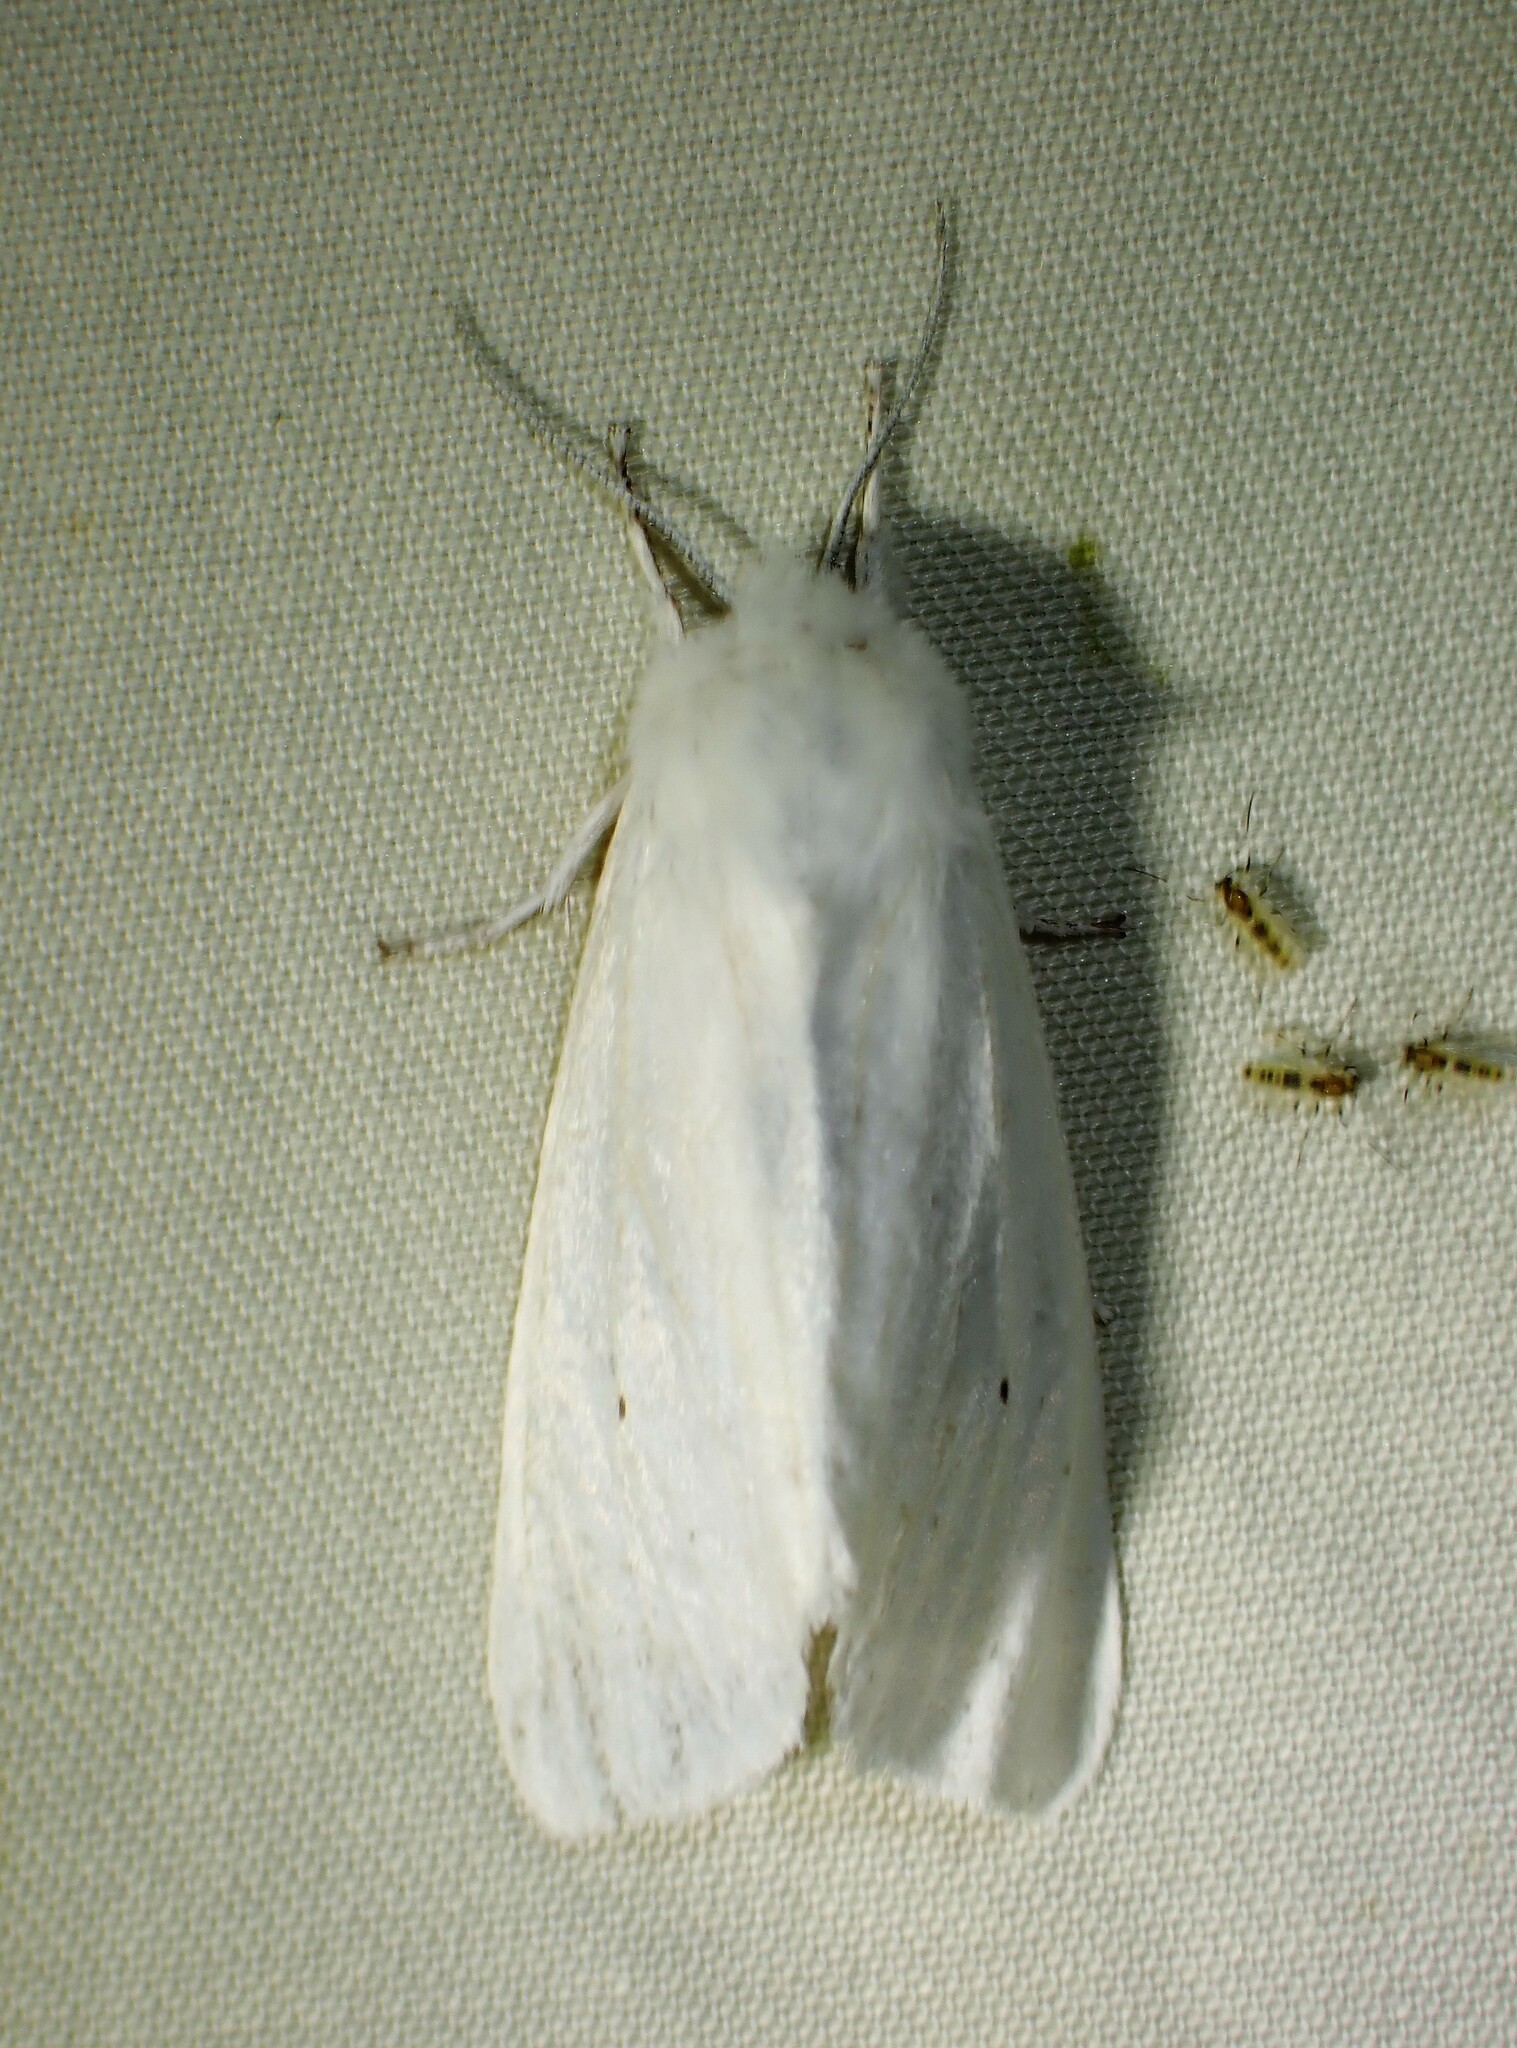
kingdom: Animalia
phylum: Arthropoda
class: Insecta
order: Lepidoptera
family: Erebidae
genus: Spilosoma
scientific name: Spilosoma virginica
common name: Virginia tiger moth
